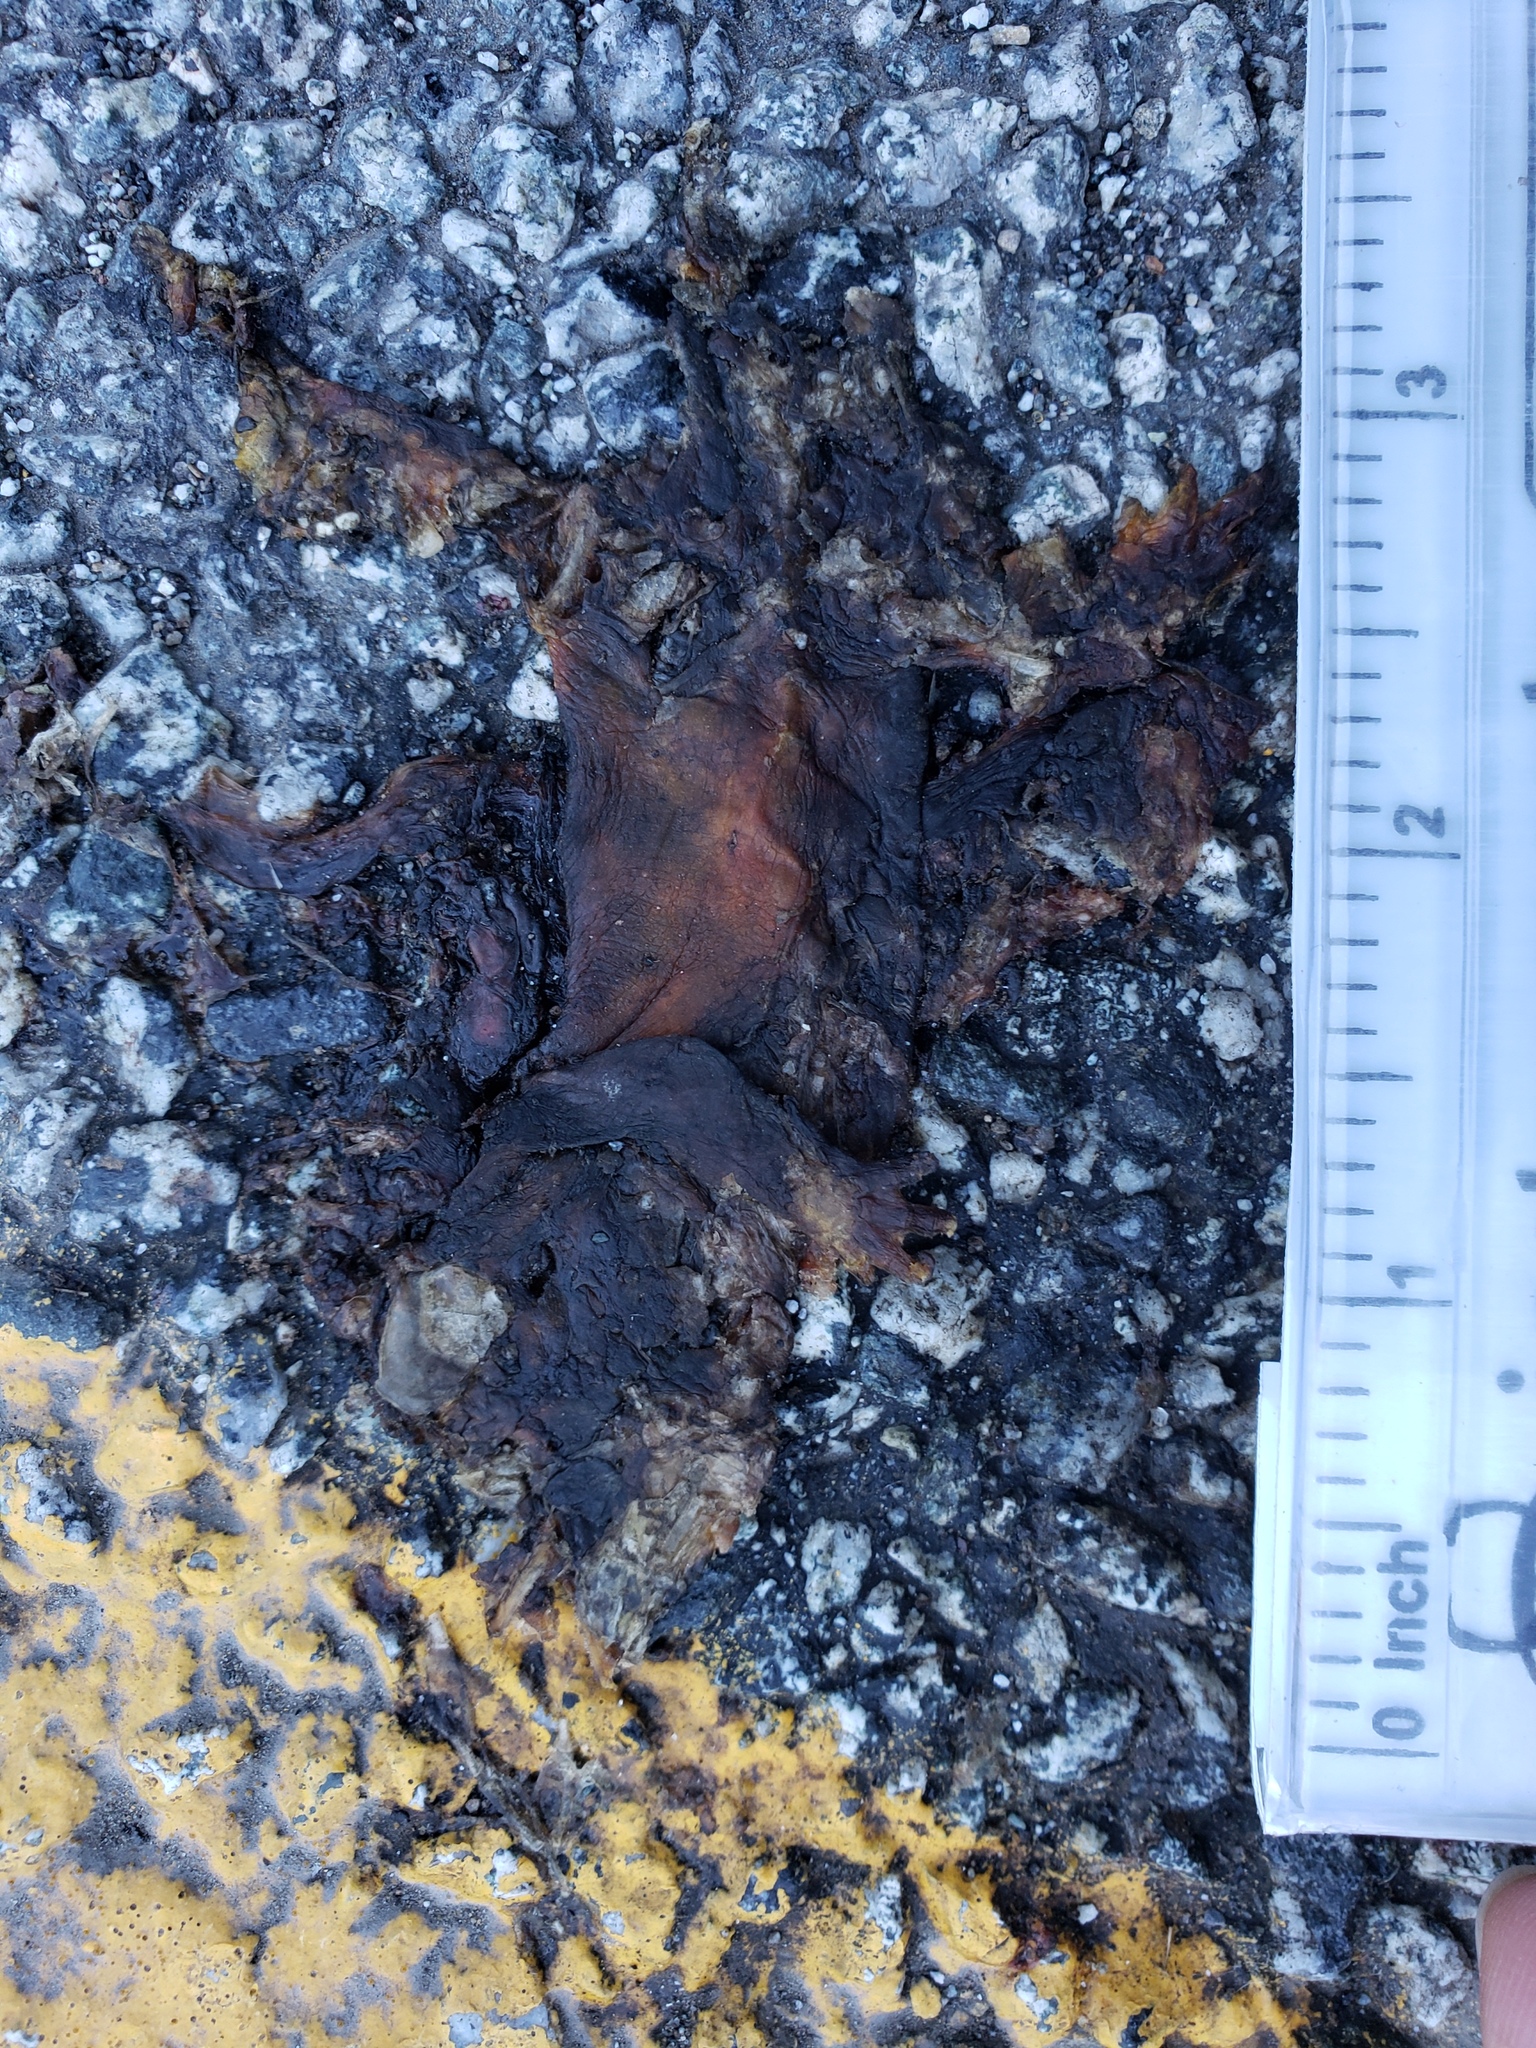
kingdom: Animalia
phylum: Chordata
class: Amphibia
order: Caudata
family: Salamandridae
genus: Taricha
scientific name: Taricha
